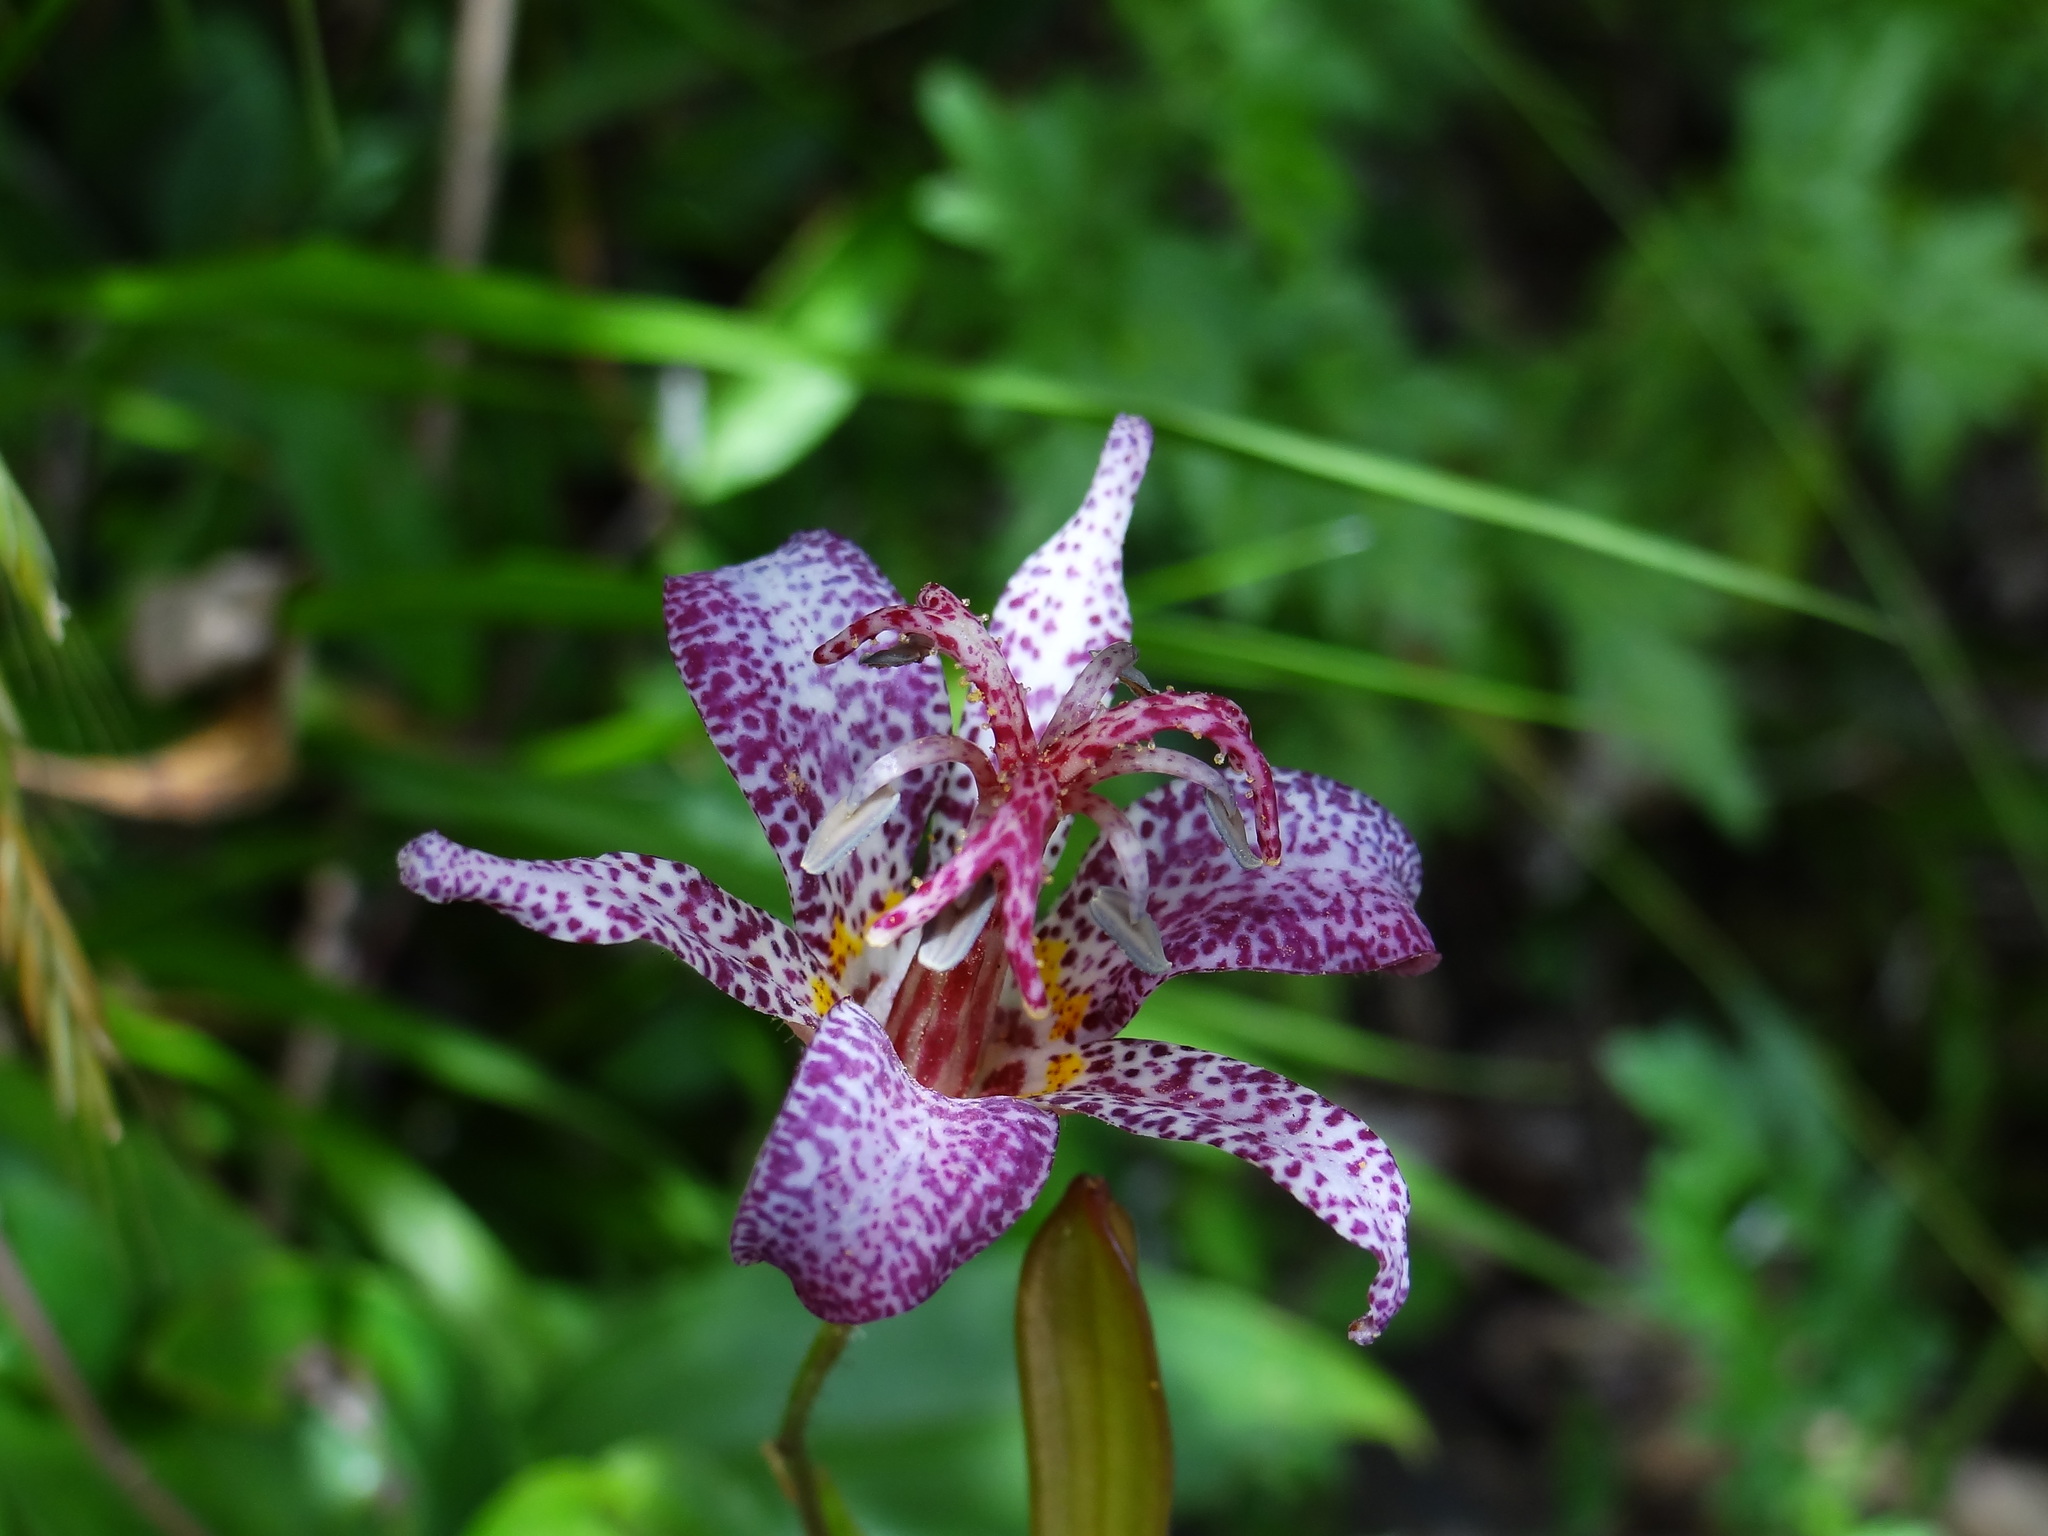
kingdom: Plantae
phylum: Tracheophyta
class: Liliopsida
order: Liliales
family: Liliaceae
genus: Tricyrtis
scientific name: Tricyrtis formosana
